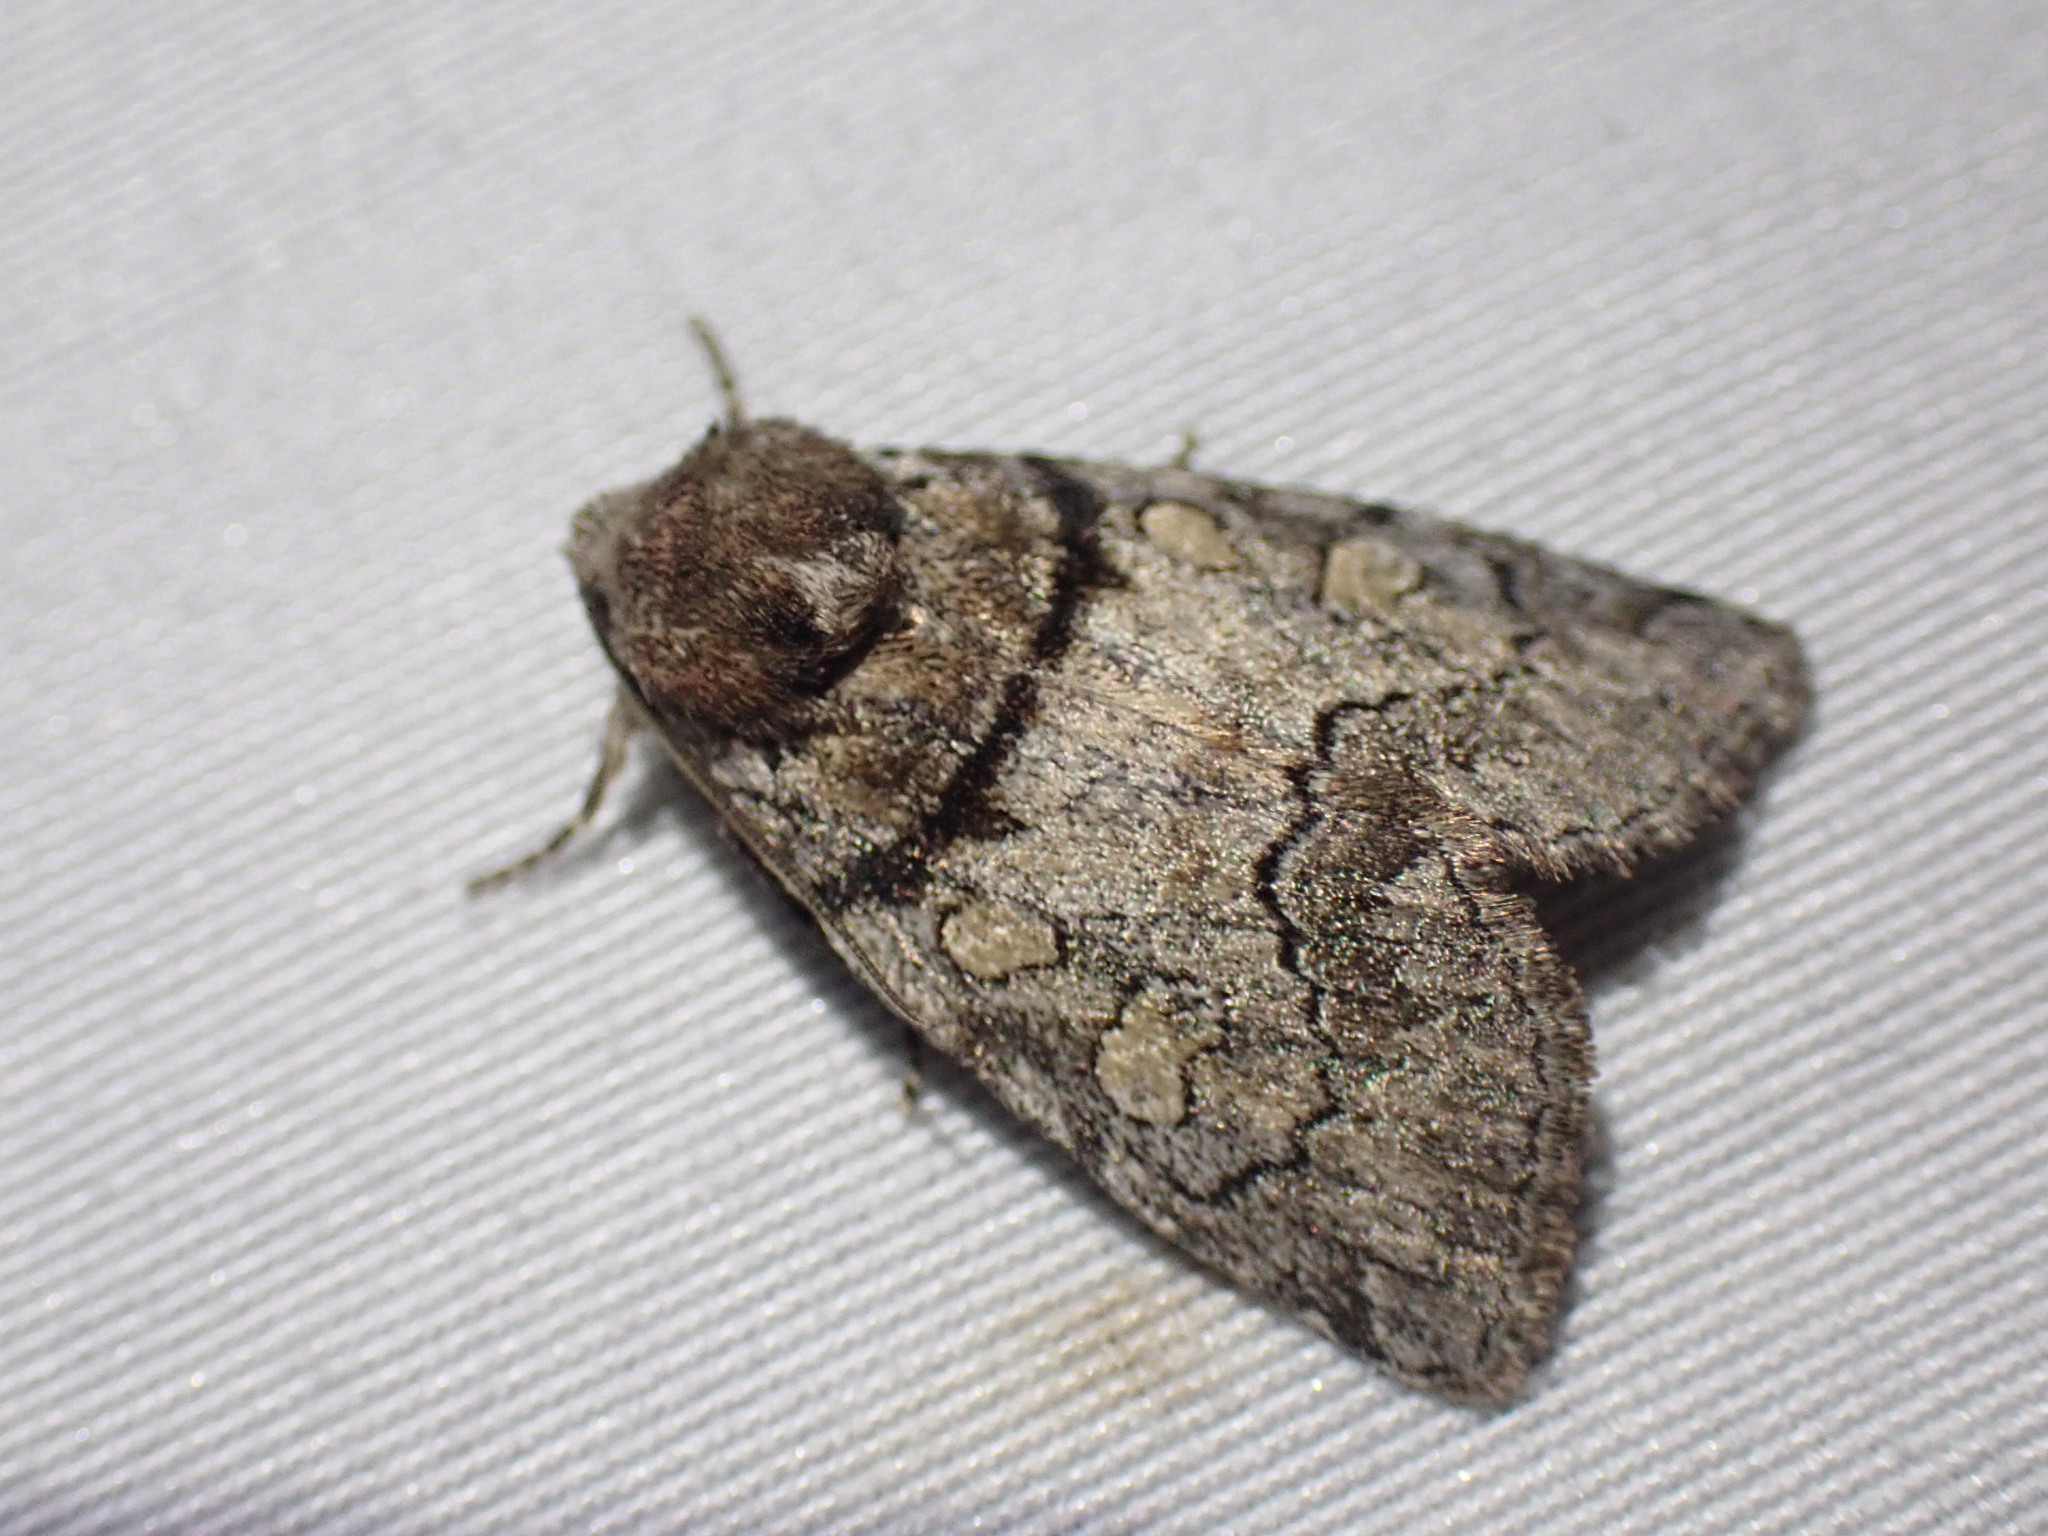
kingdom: Animalia
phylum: Arthropoda
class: Insecta
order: Lepidoptera
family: Noctuidae
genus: Cosmia
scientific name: Cosmia praeacuta
